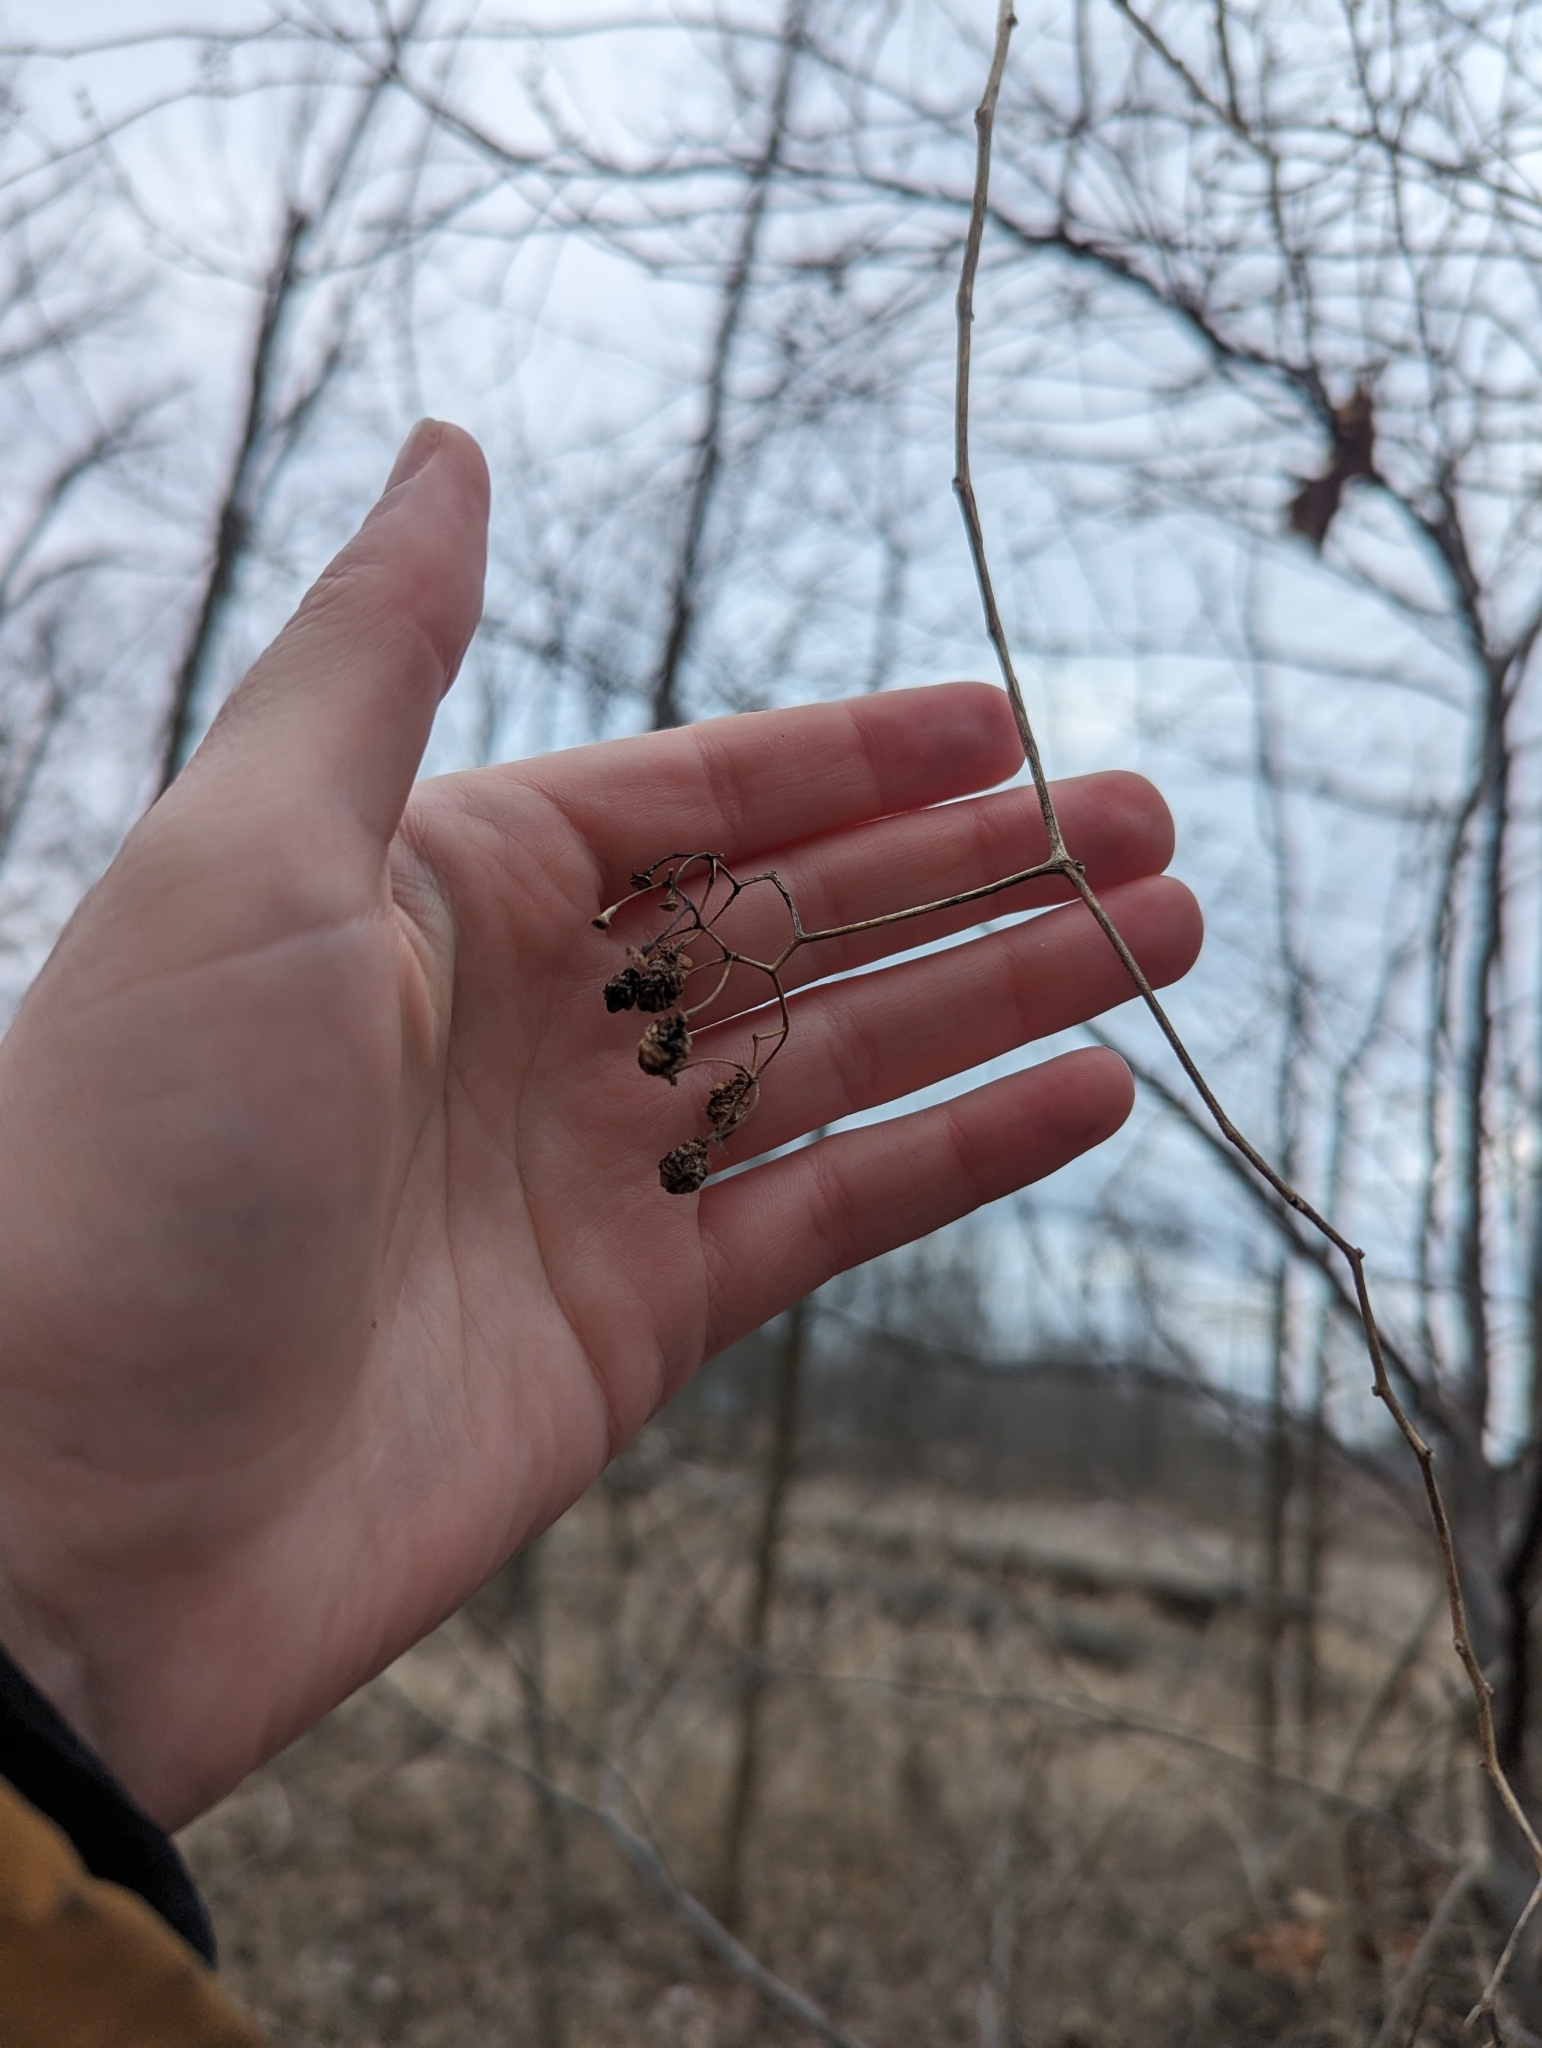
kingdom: Plantae
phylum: Tracheophyta
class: Magnoliopsida
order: Solanales
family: Solanaceae
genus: Solanum
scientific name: Solanum dulcamara
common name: Climbing nightshade
